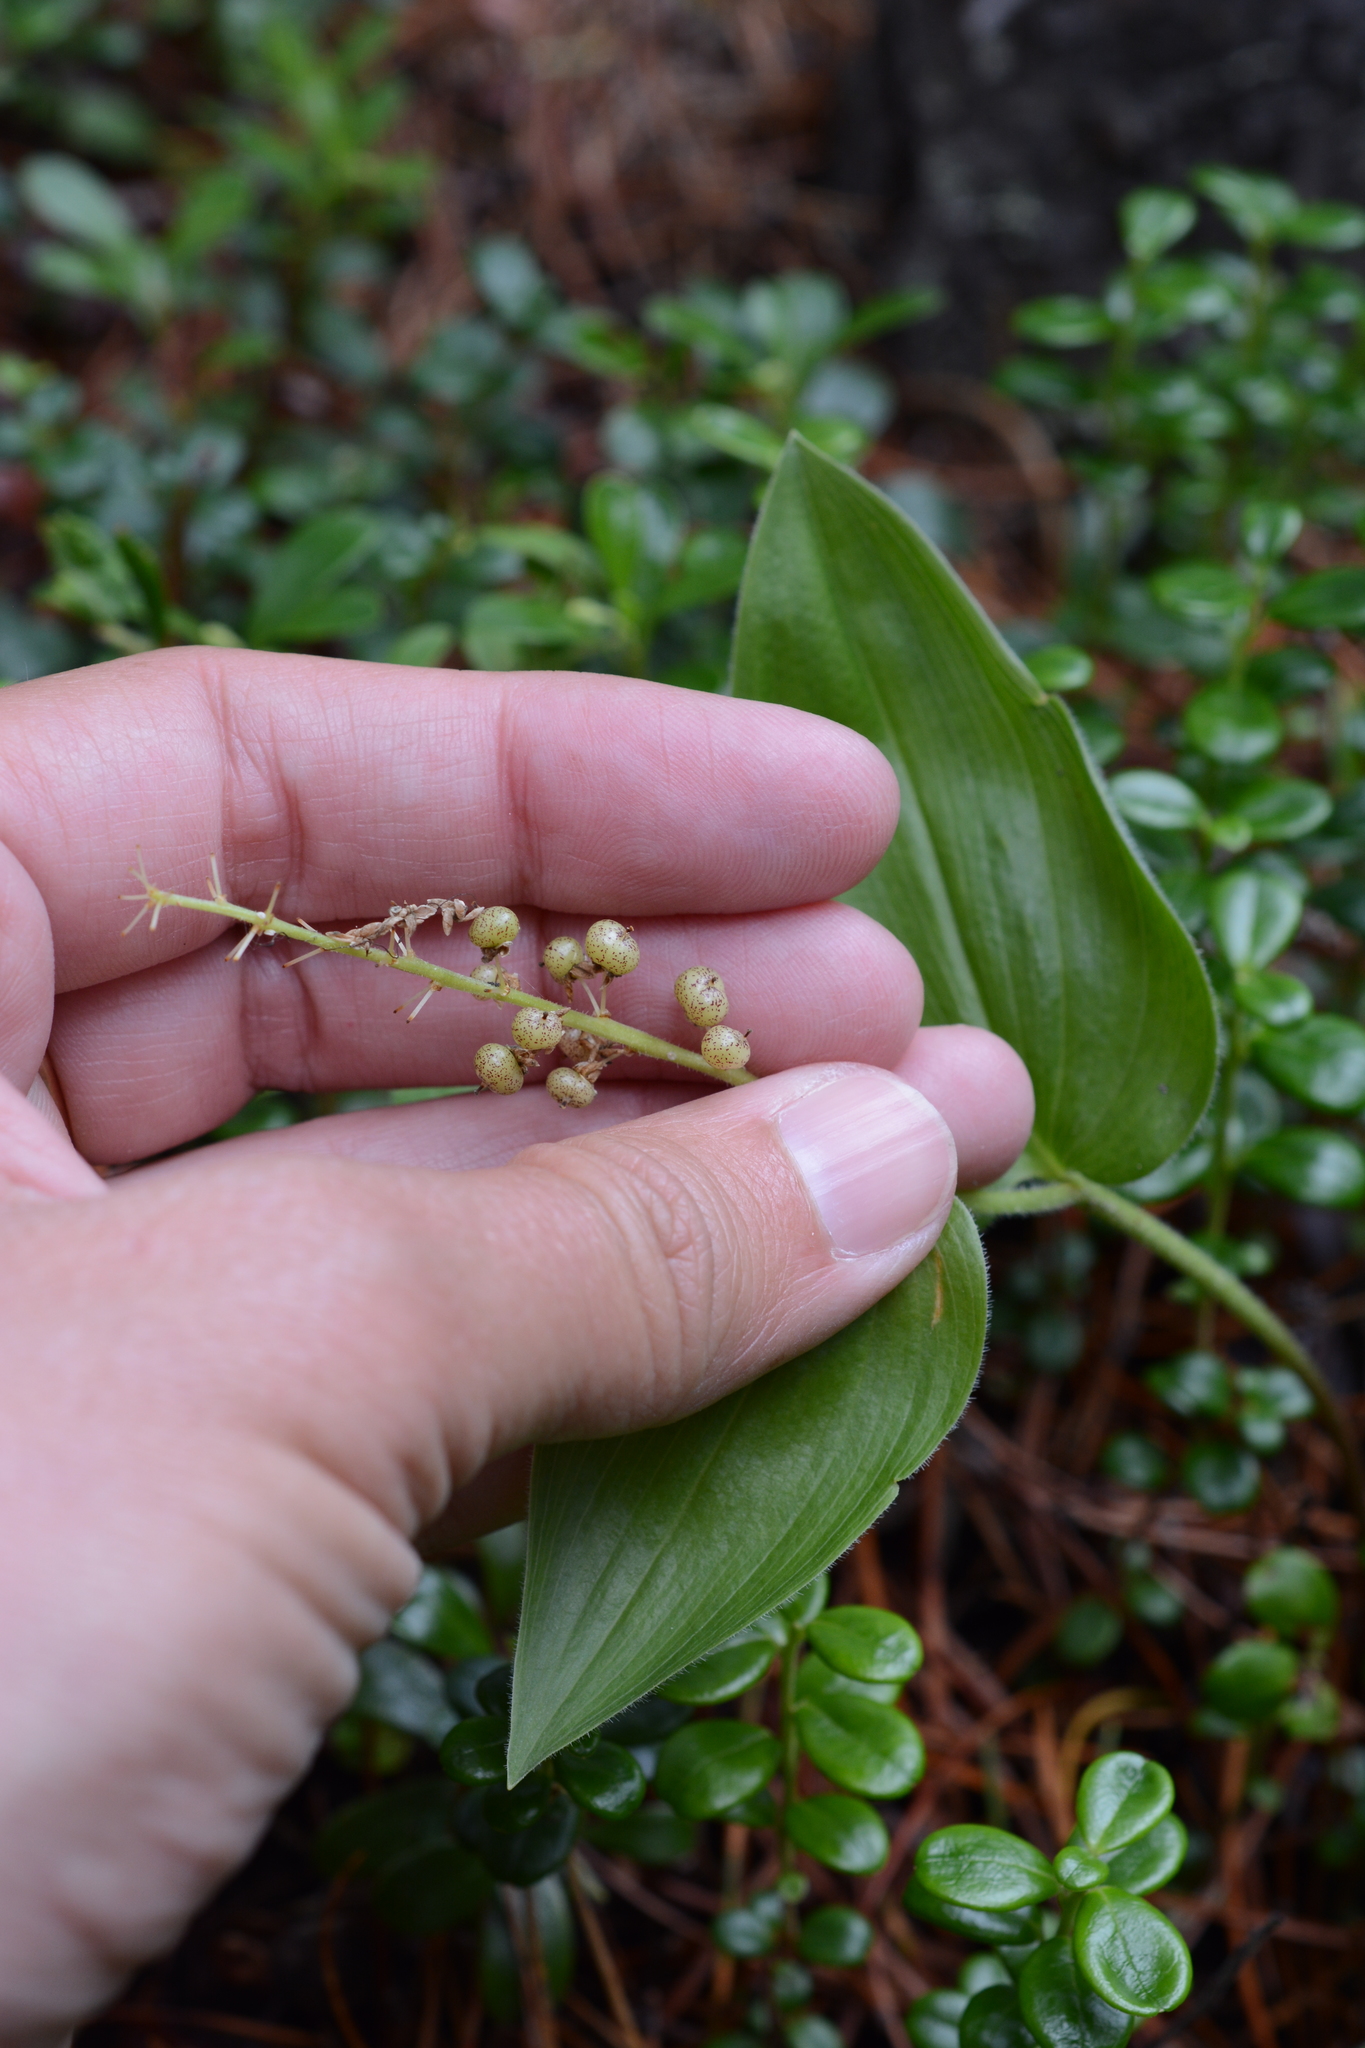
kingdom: Plantae
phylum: Tracheophyta
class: Liliopsida
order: Asparagales
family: Asparagaceae
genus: Maianthemum
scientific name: Maianthemum canadense
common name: False lily-of-the-valley
